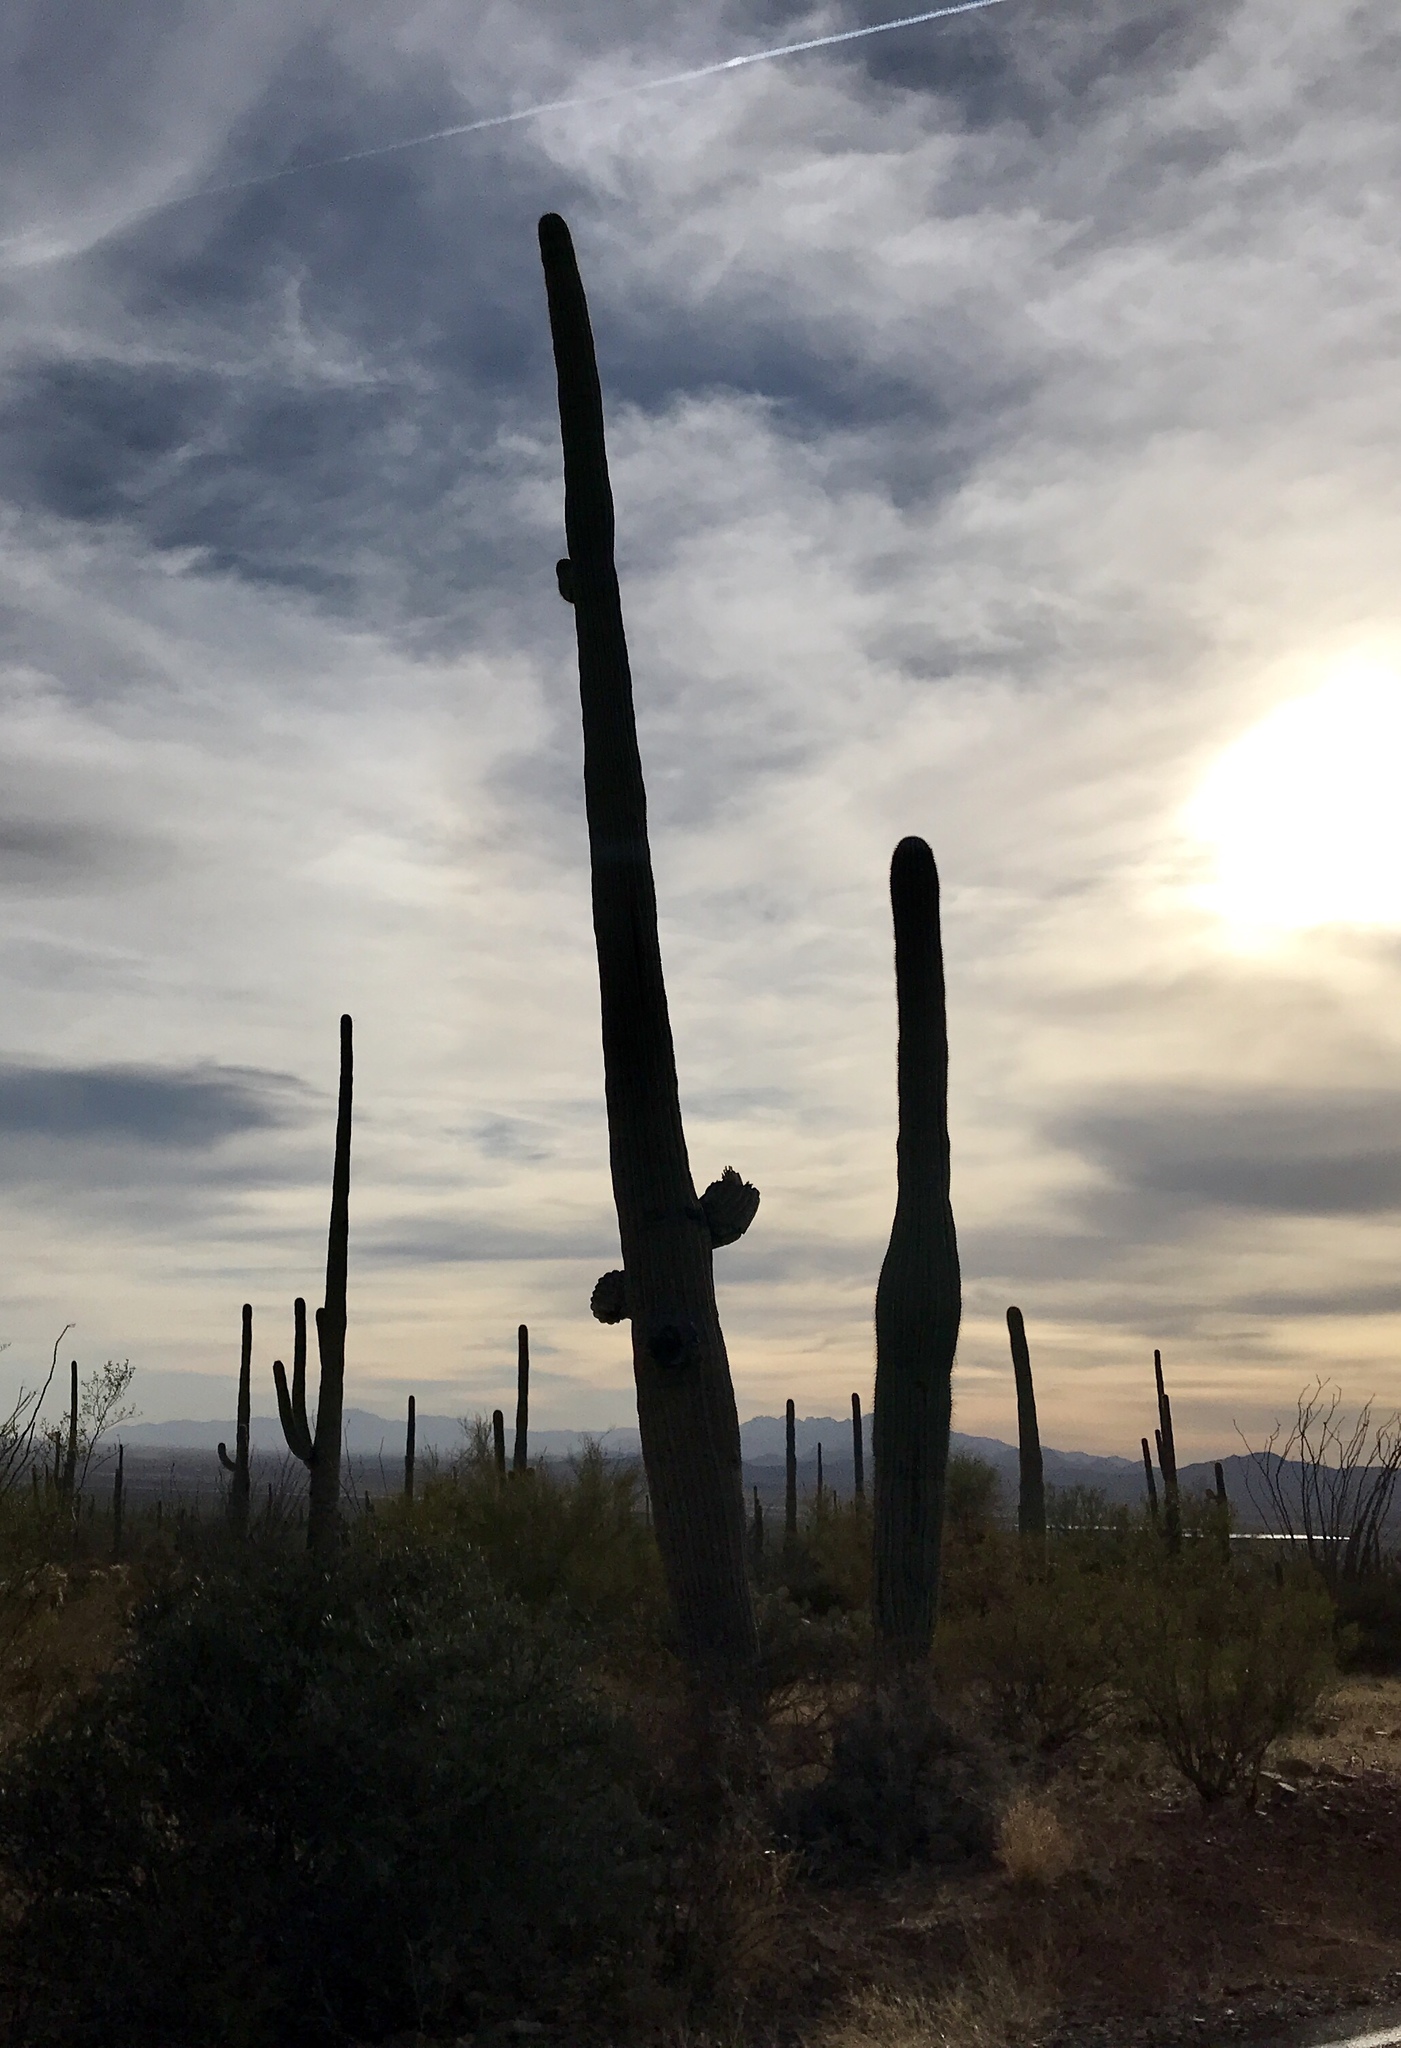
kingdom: Plantae
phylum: Tracheophyta
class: Magnoliopsida
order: Caryophyllales
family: Cactaceae
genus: Carnegiea
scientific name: Carnegiea gigantea
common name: Saguaro
